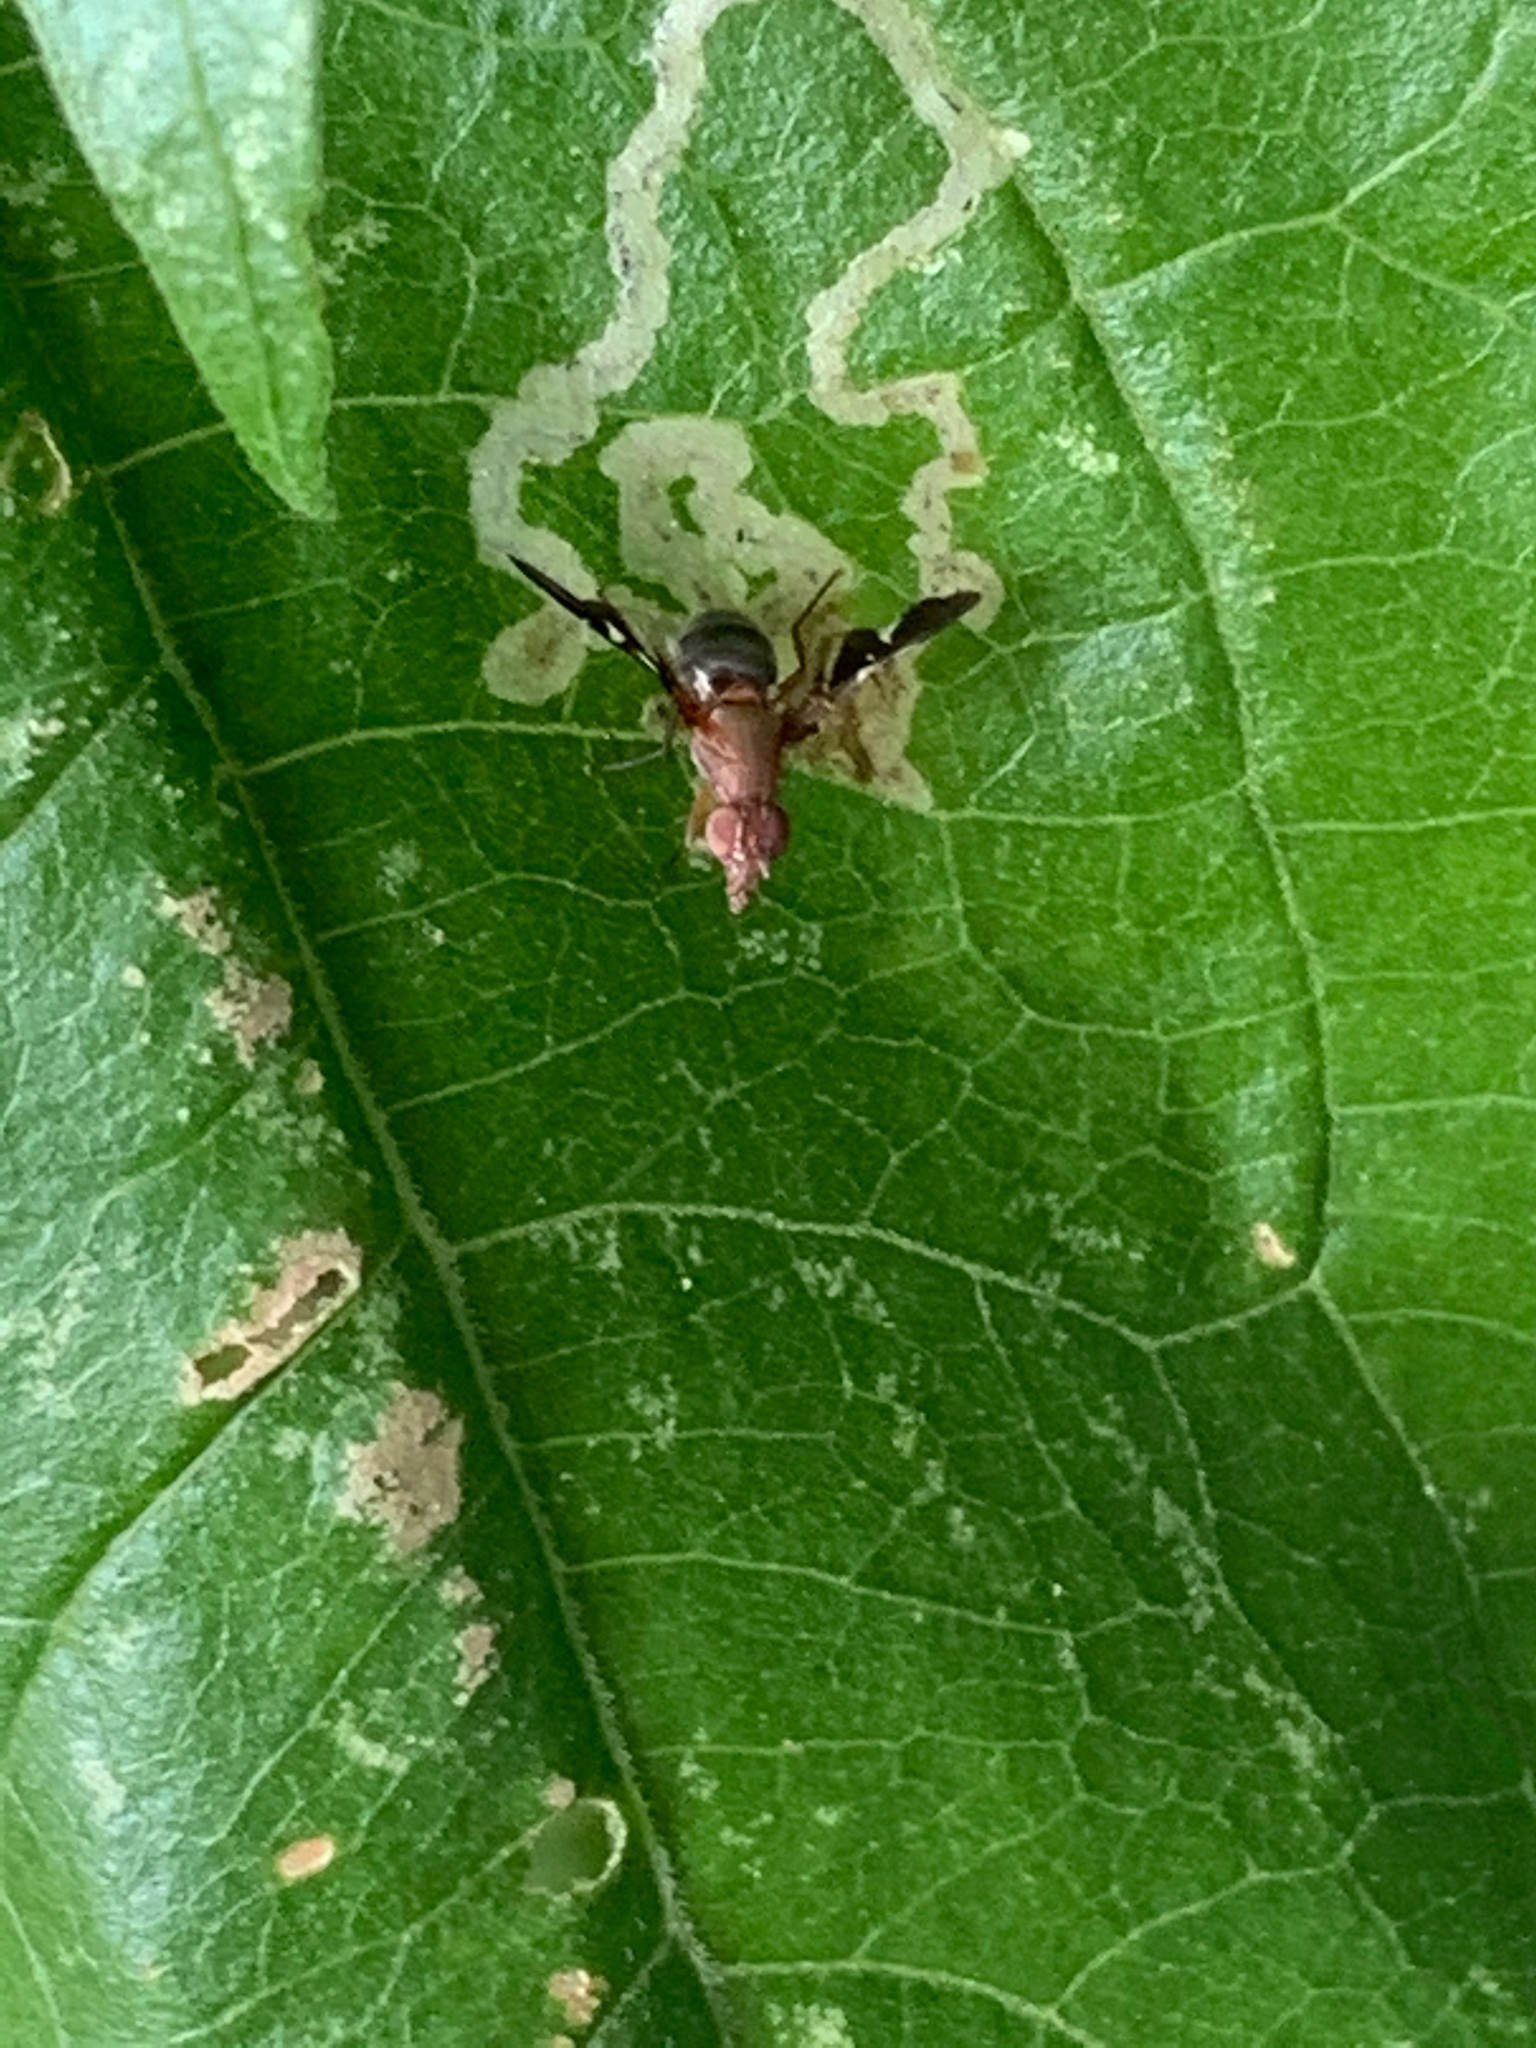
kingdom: Animalia
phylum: Arthropoda
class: Insecta
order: Diptera
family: Ulidiidae
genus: Delphinia
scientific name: Delphinia picta
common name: Common picture-winged fly
